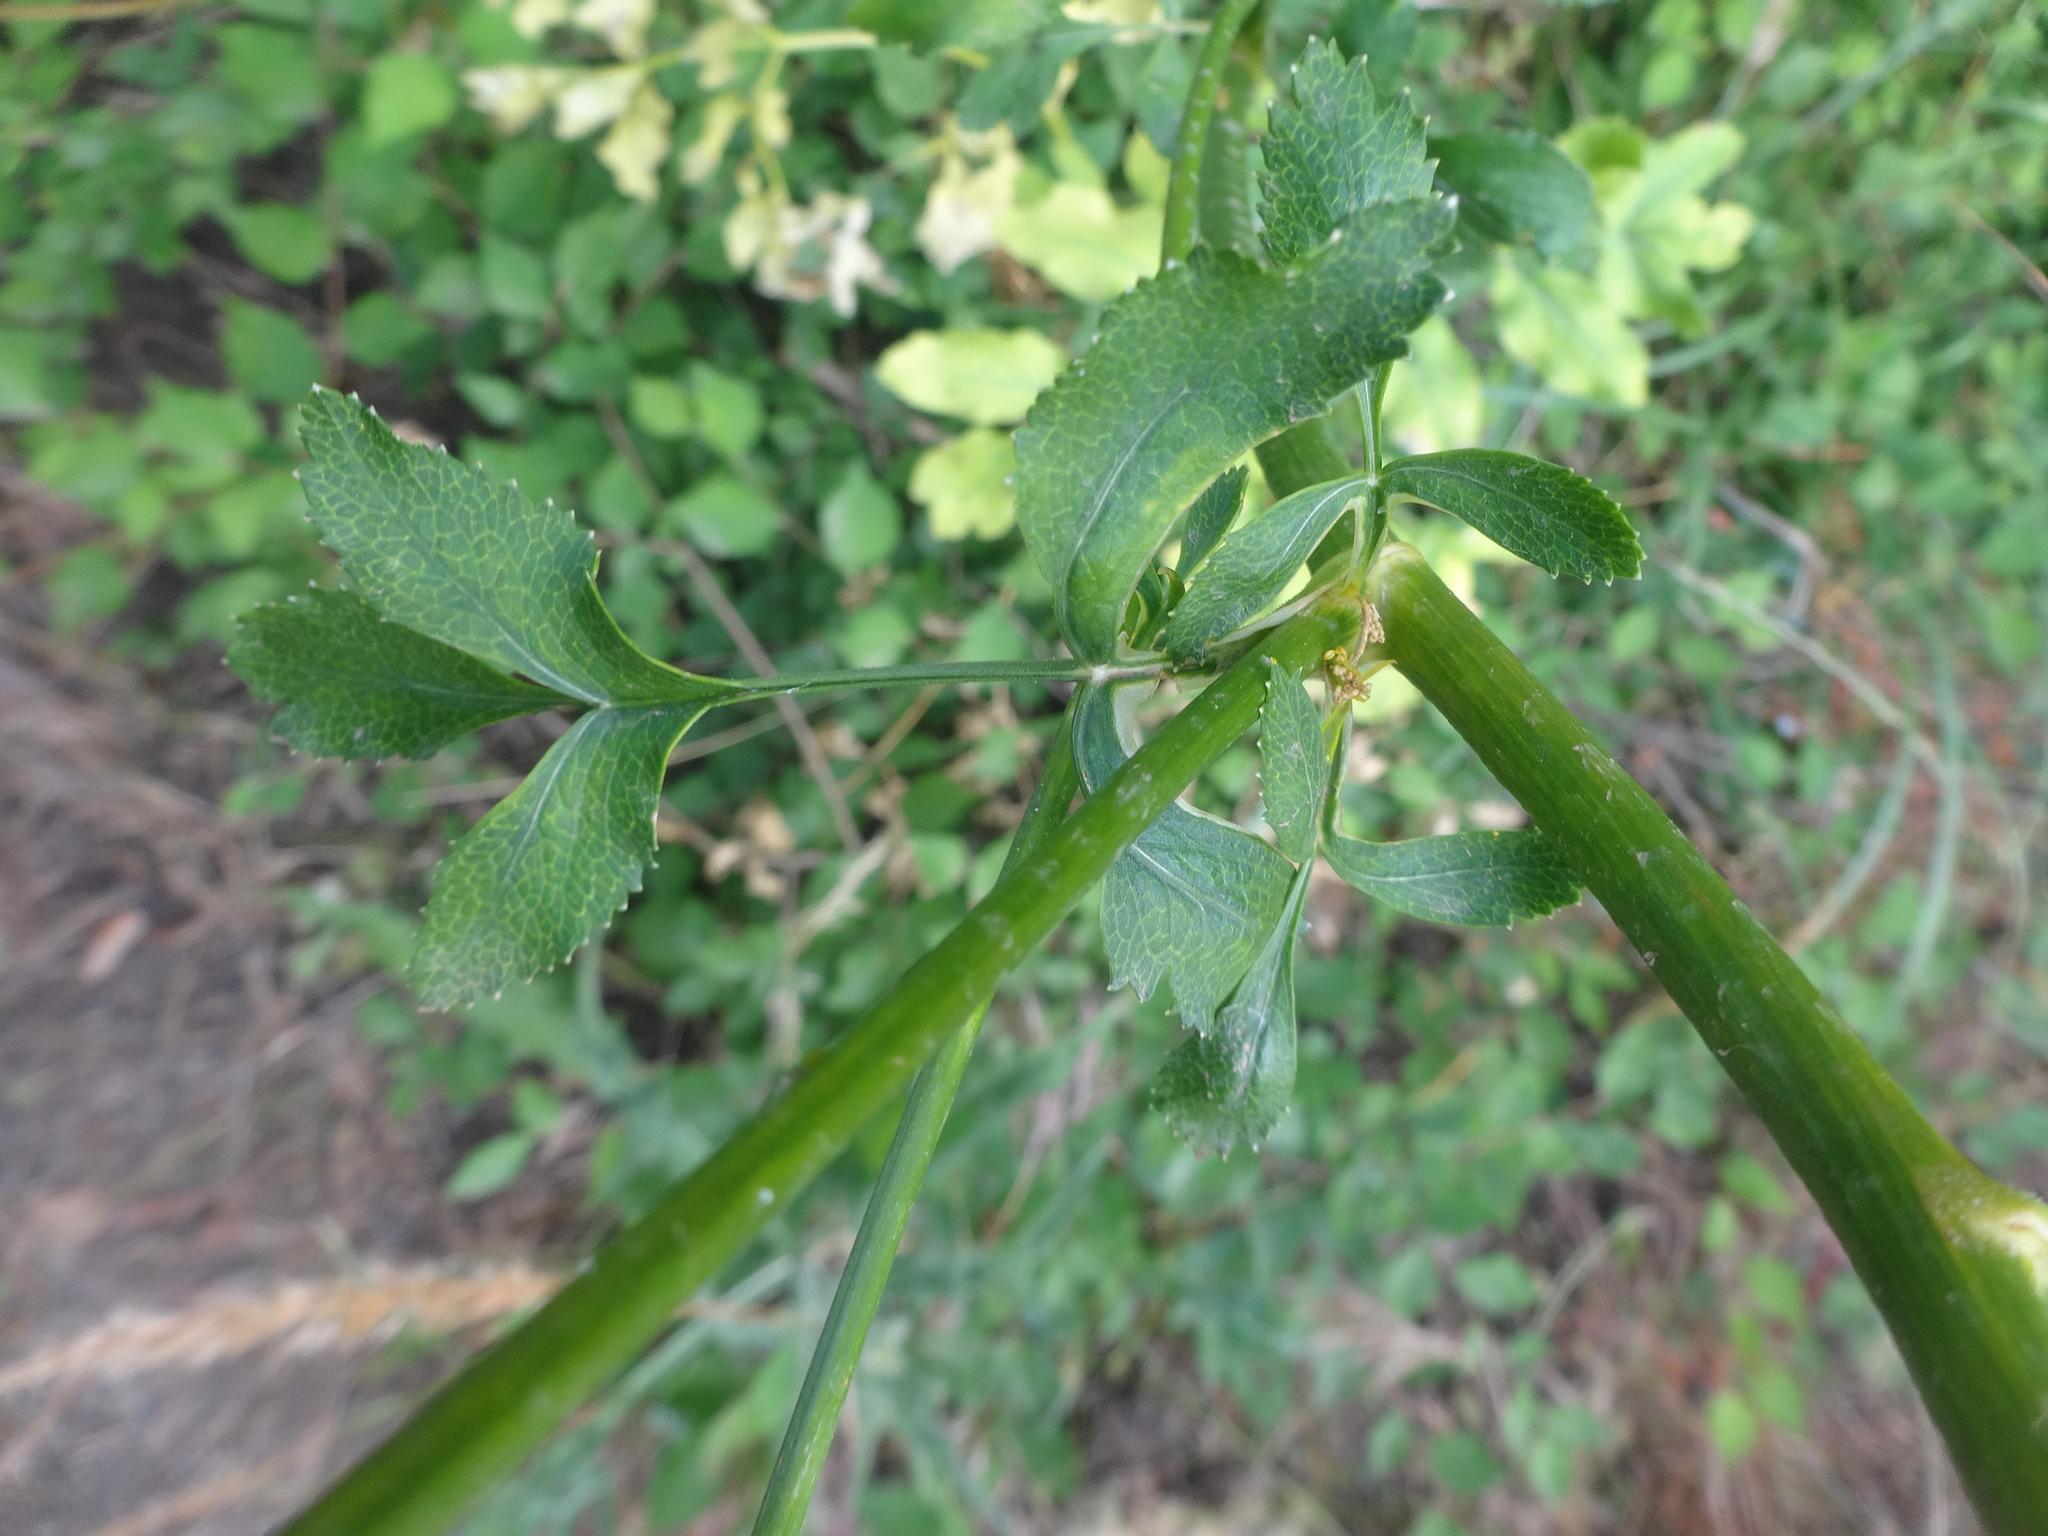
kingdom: Plantae
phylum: Tracheophyta
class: Magnoliopsida
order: Apiales
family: Apiaceae
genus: Pastinaca
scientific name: Pastinaca sativa
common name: Wild parsnip
